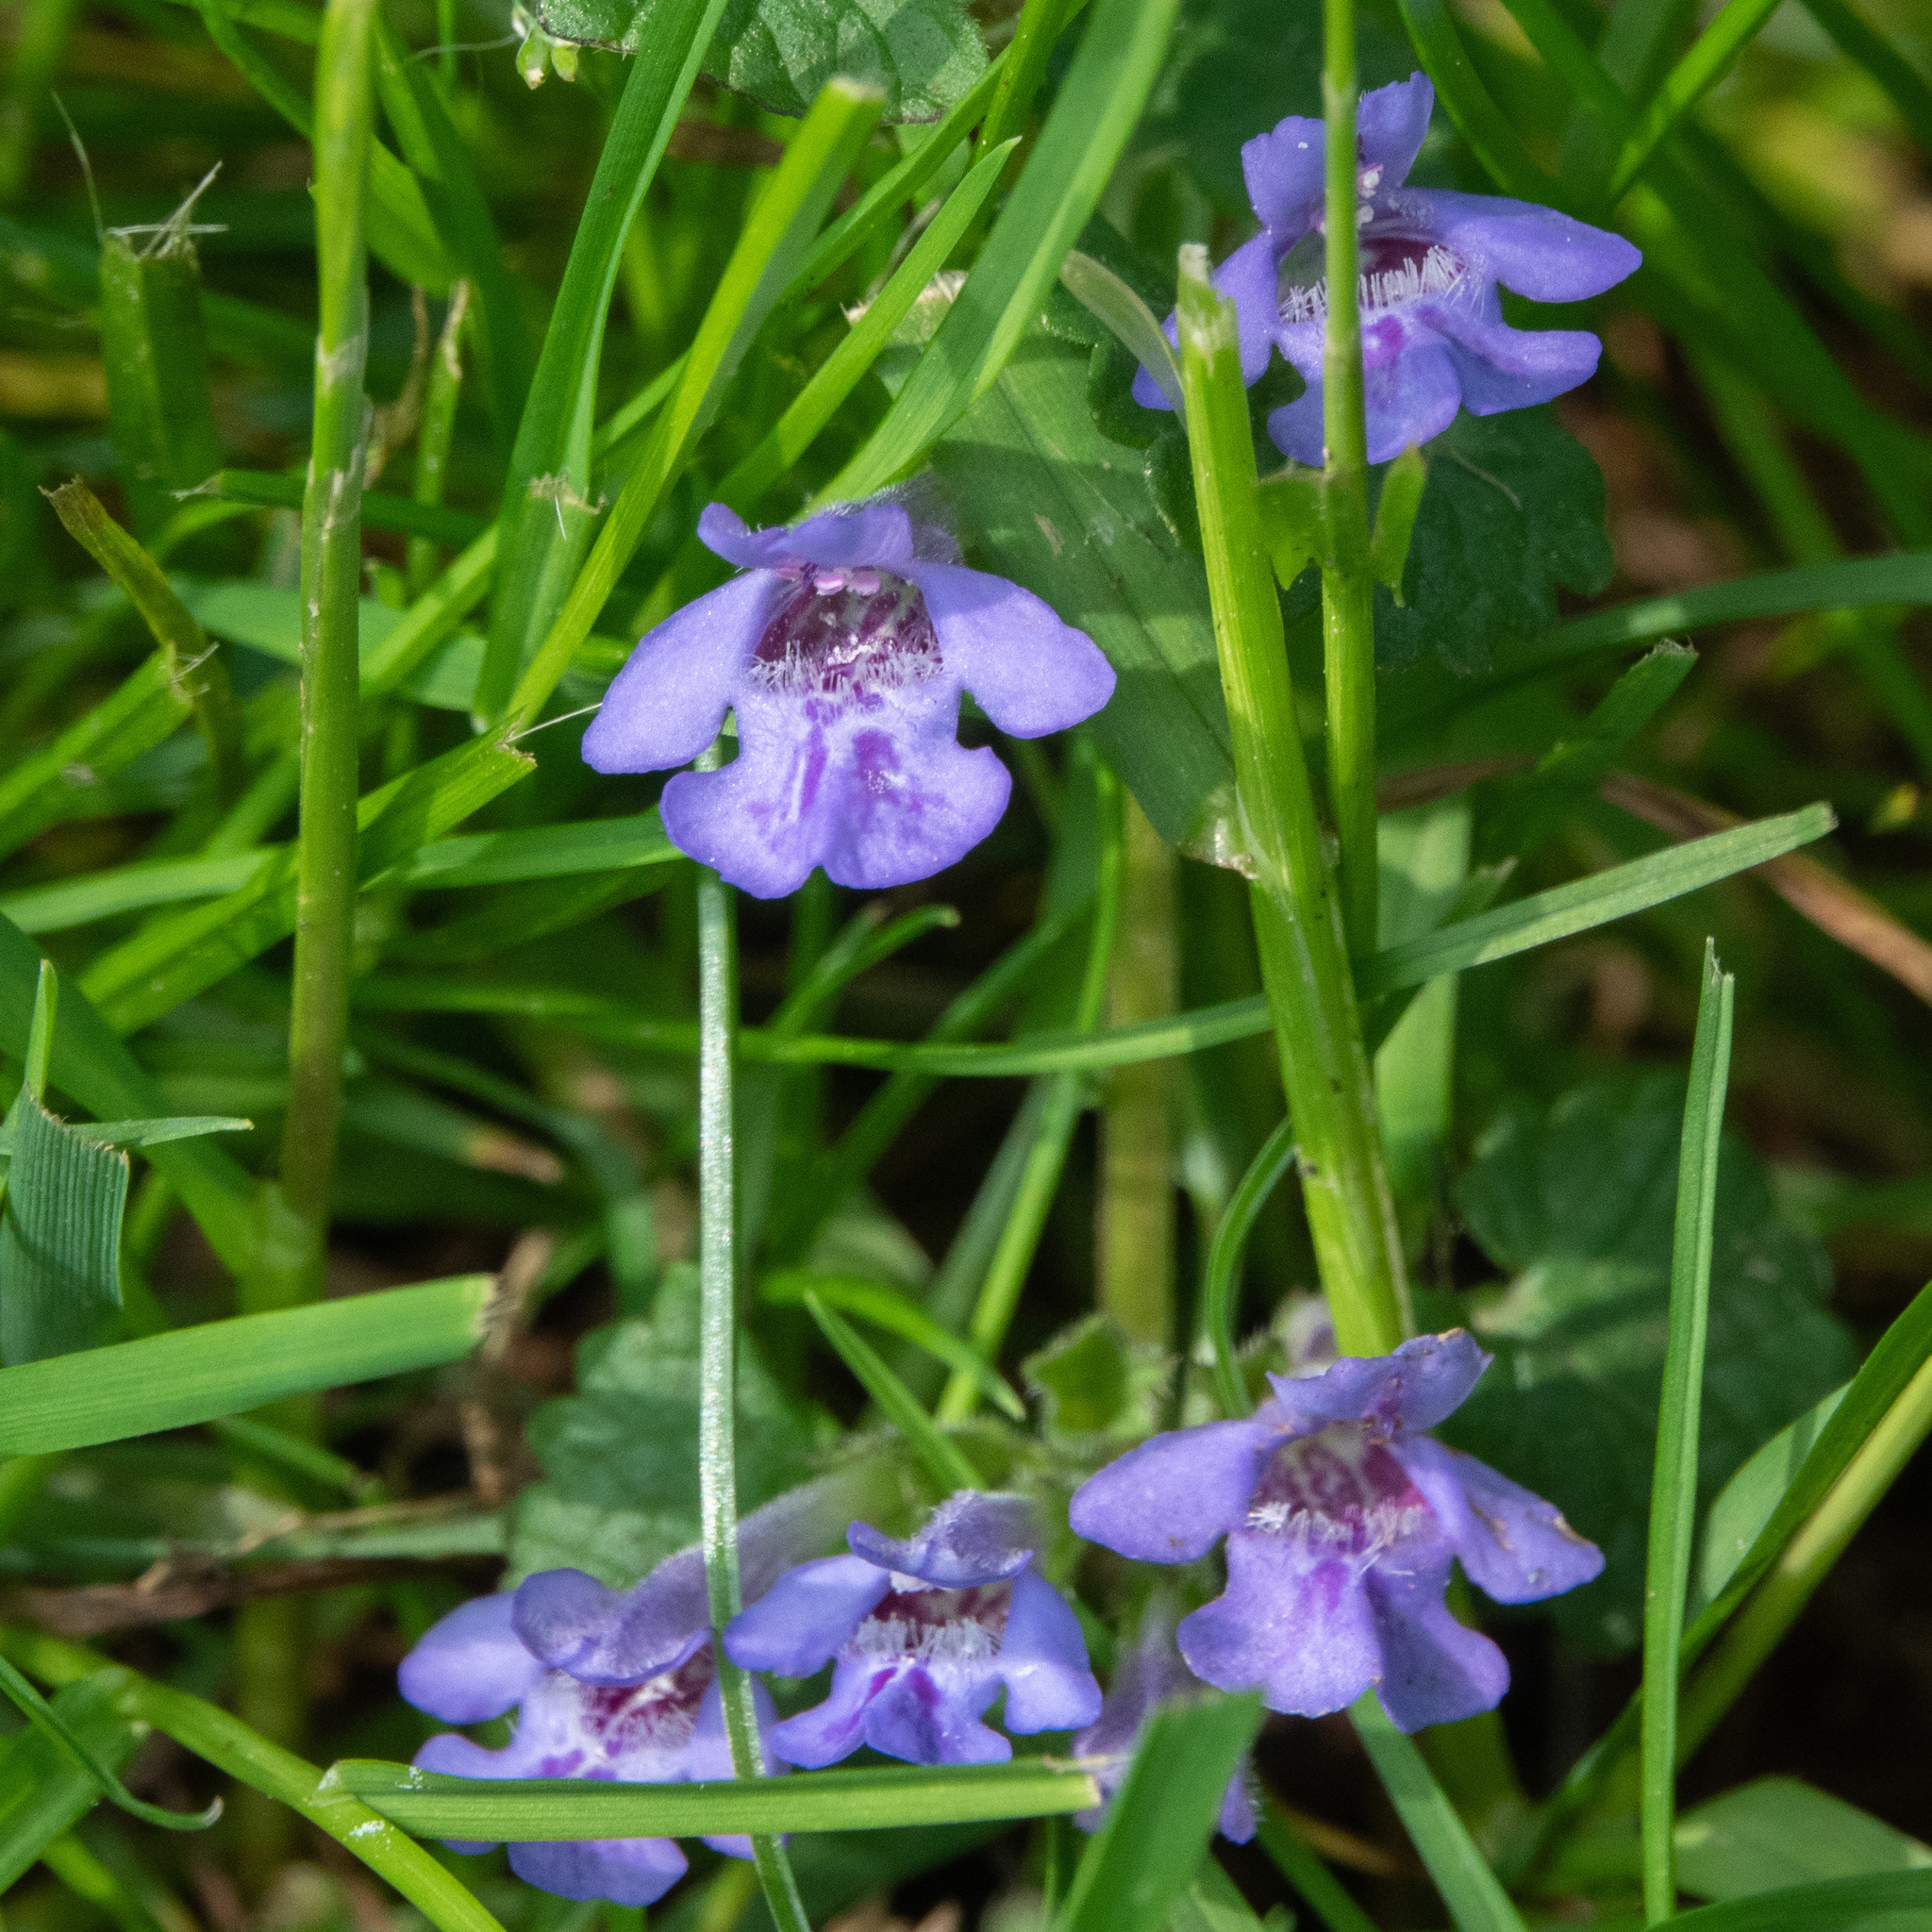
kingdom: Plantae
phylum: Tracheophyta
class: Magnoliopsida
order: Lamiales
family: Lamiaceae
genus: Glechoma
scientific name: Glechoma hederacea
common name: Ground ivy
